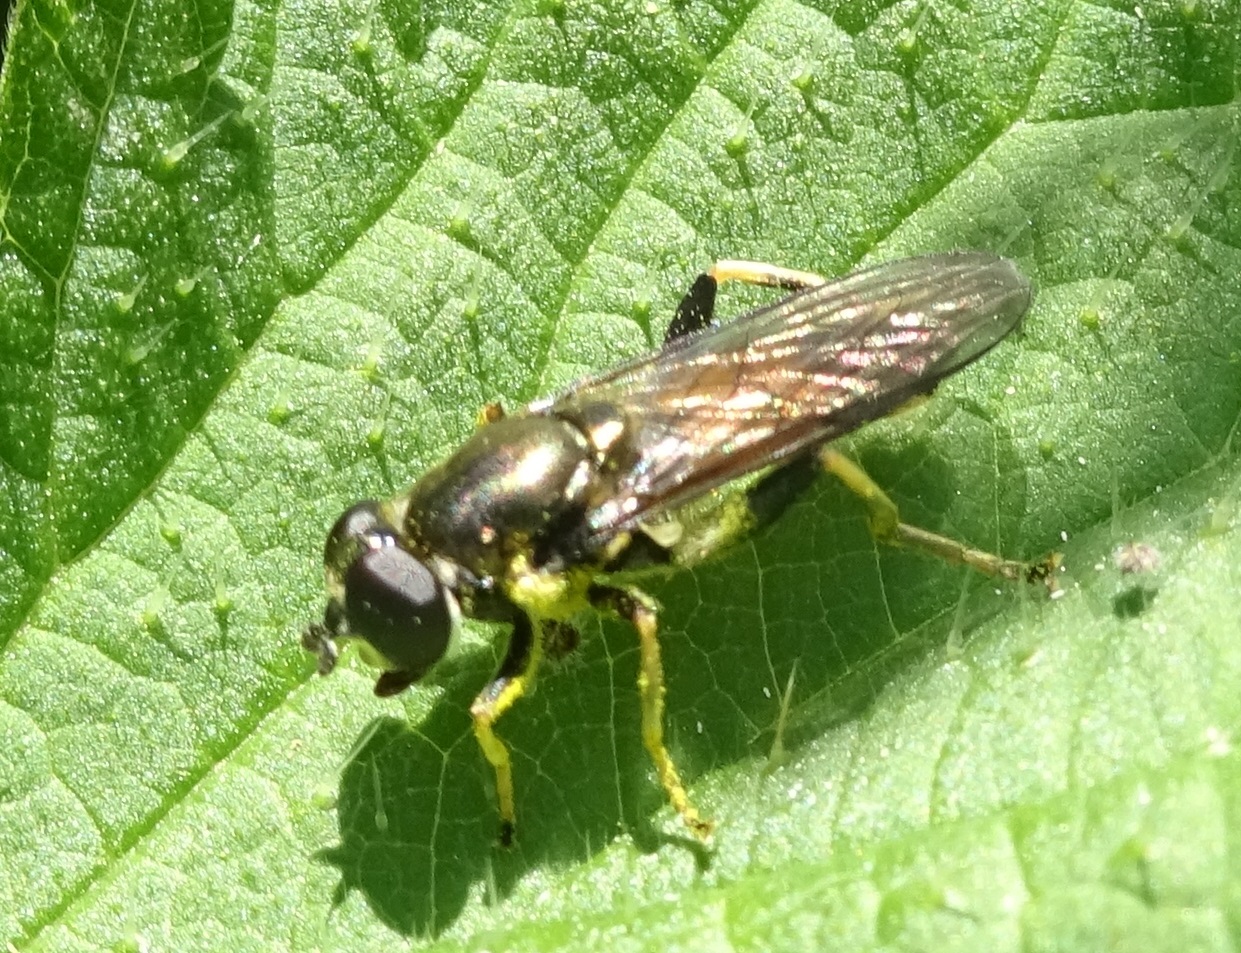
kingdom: Animalia
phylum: Arthropoda
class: Insecta
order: Diptera
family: Syrphidae
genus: Xylota
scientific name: Xylota segnis
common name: Brown-toed forest fly
